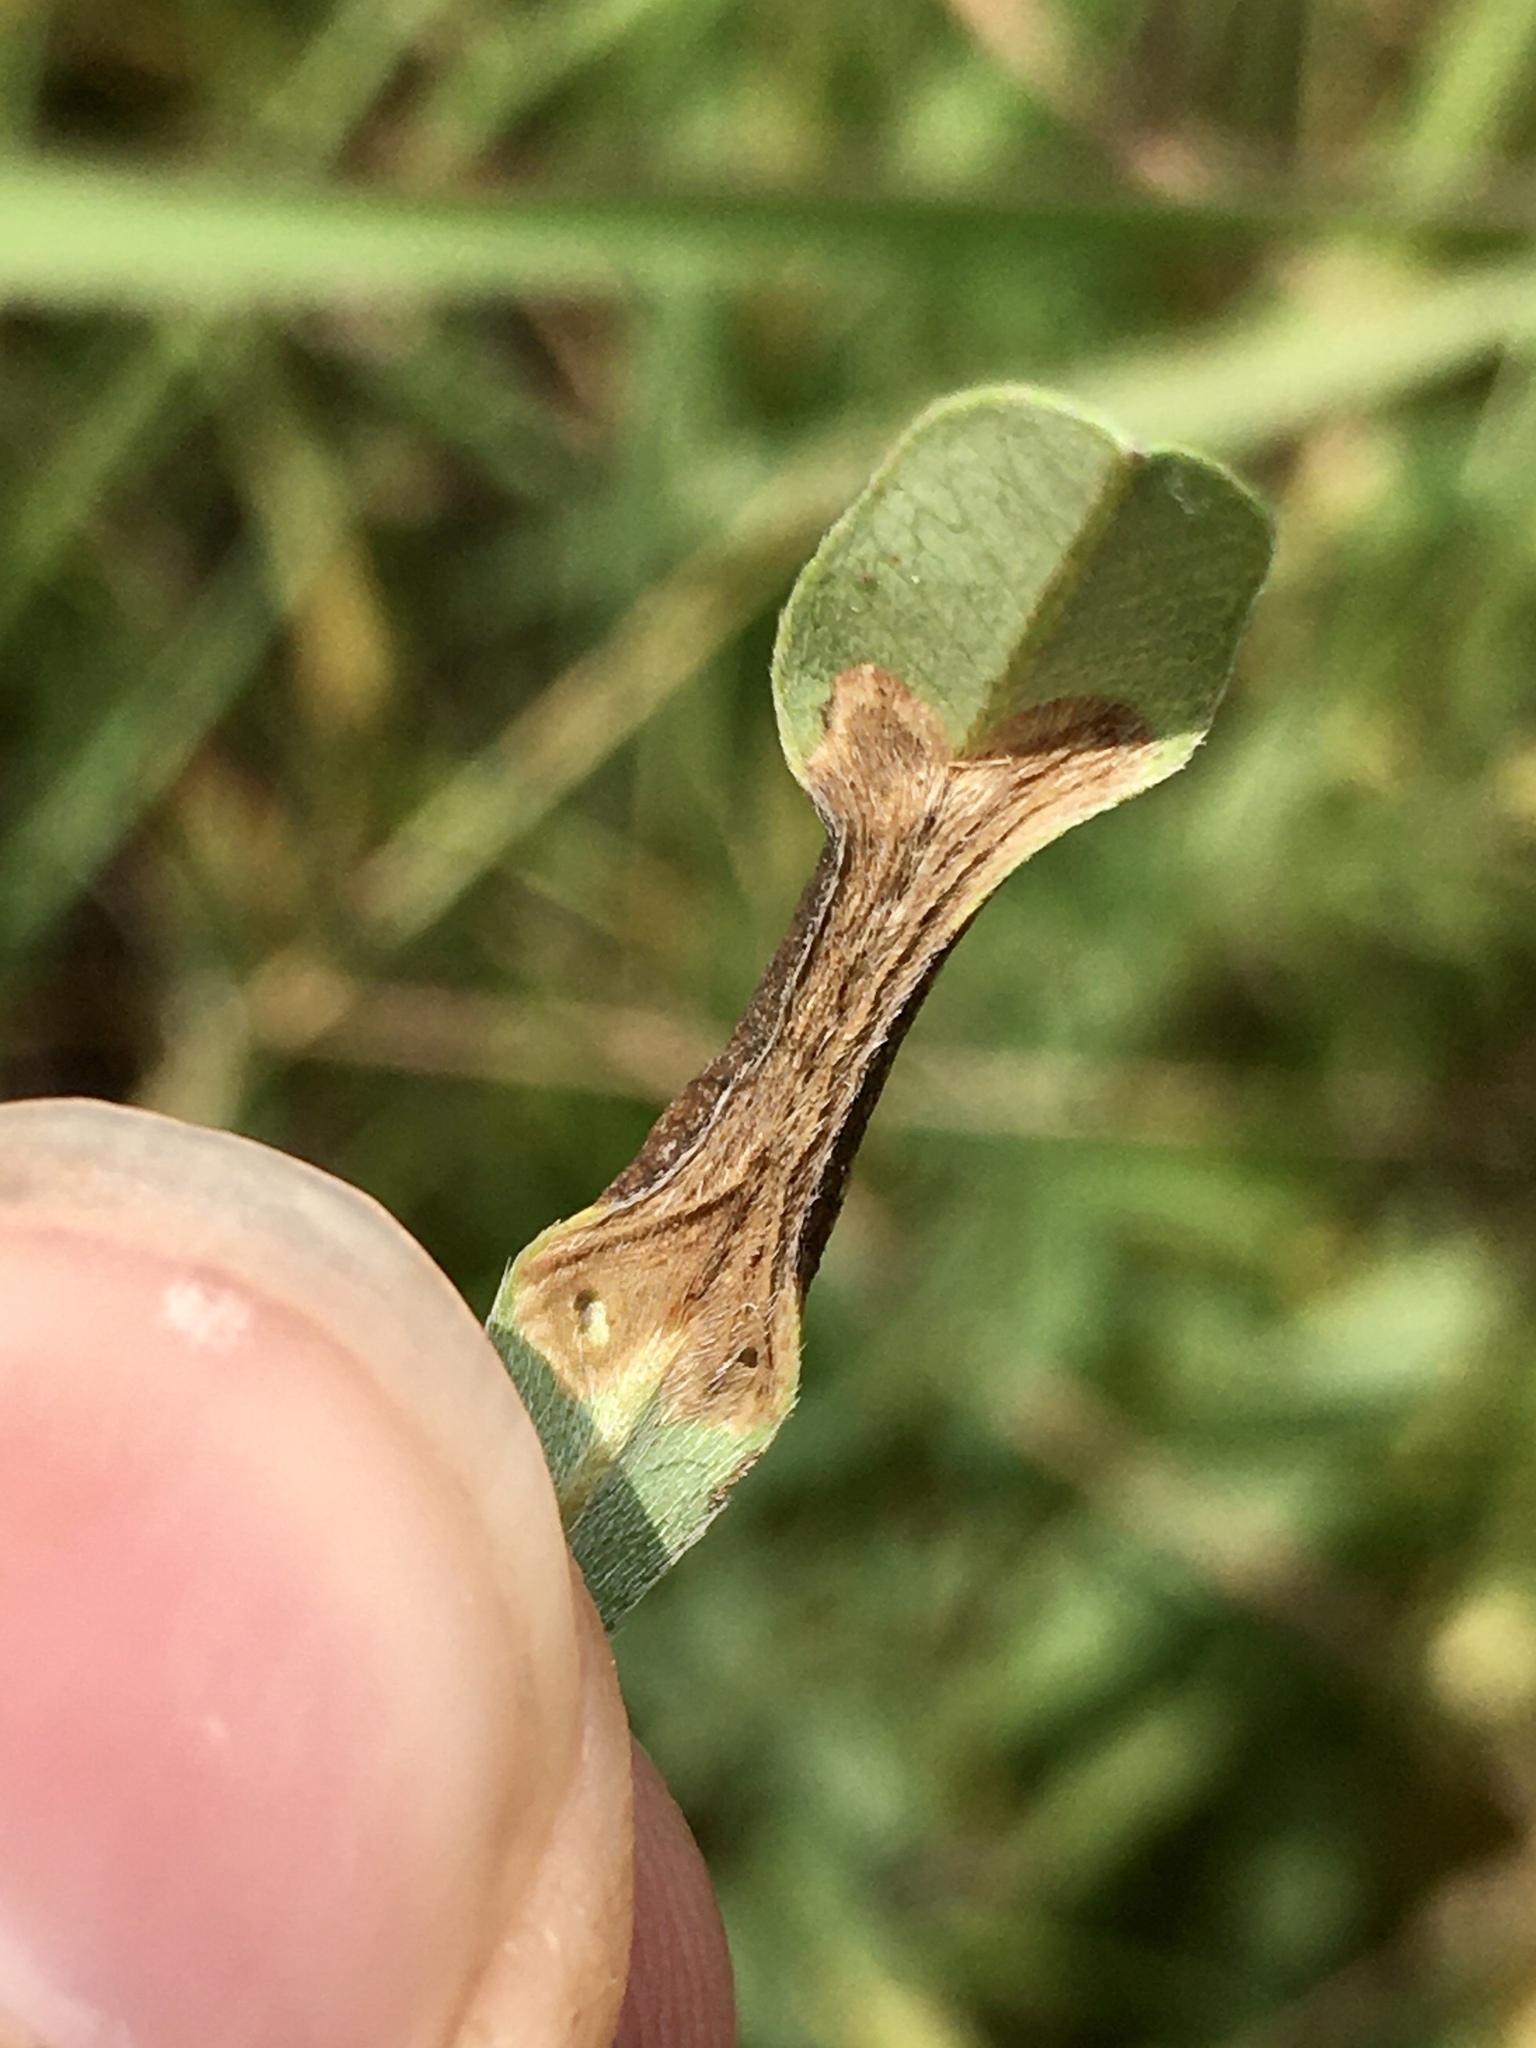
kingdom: Animalia
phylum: Arthropoda
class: Insecta
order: Lepidoptera
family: Gracillariidae
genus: Porphyrosela
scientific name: Porphyrosela desmodiella
